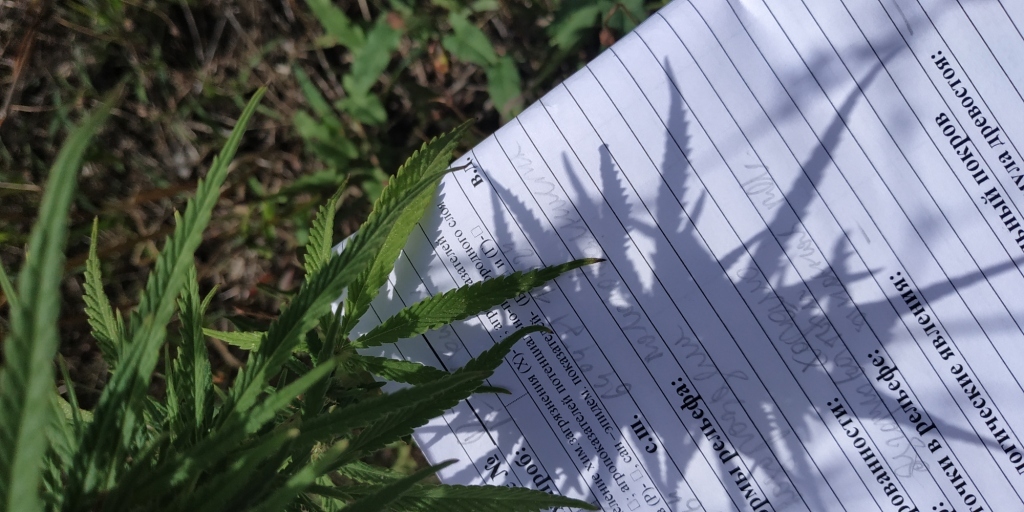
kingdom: Plantae
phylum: Tracheophyta
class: Magnoliopsida
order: Rosales
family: Cannabaceae
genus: Cannabis
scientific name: Cannabis sativa
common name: Hemp
